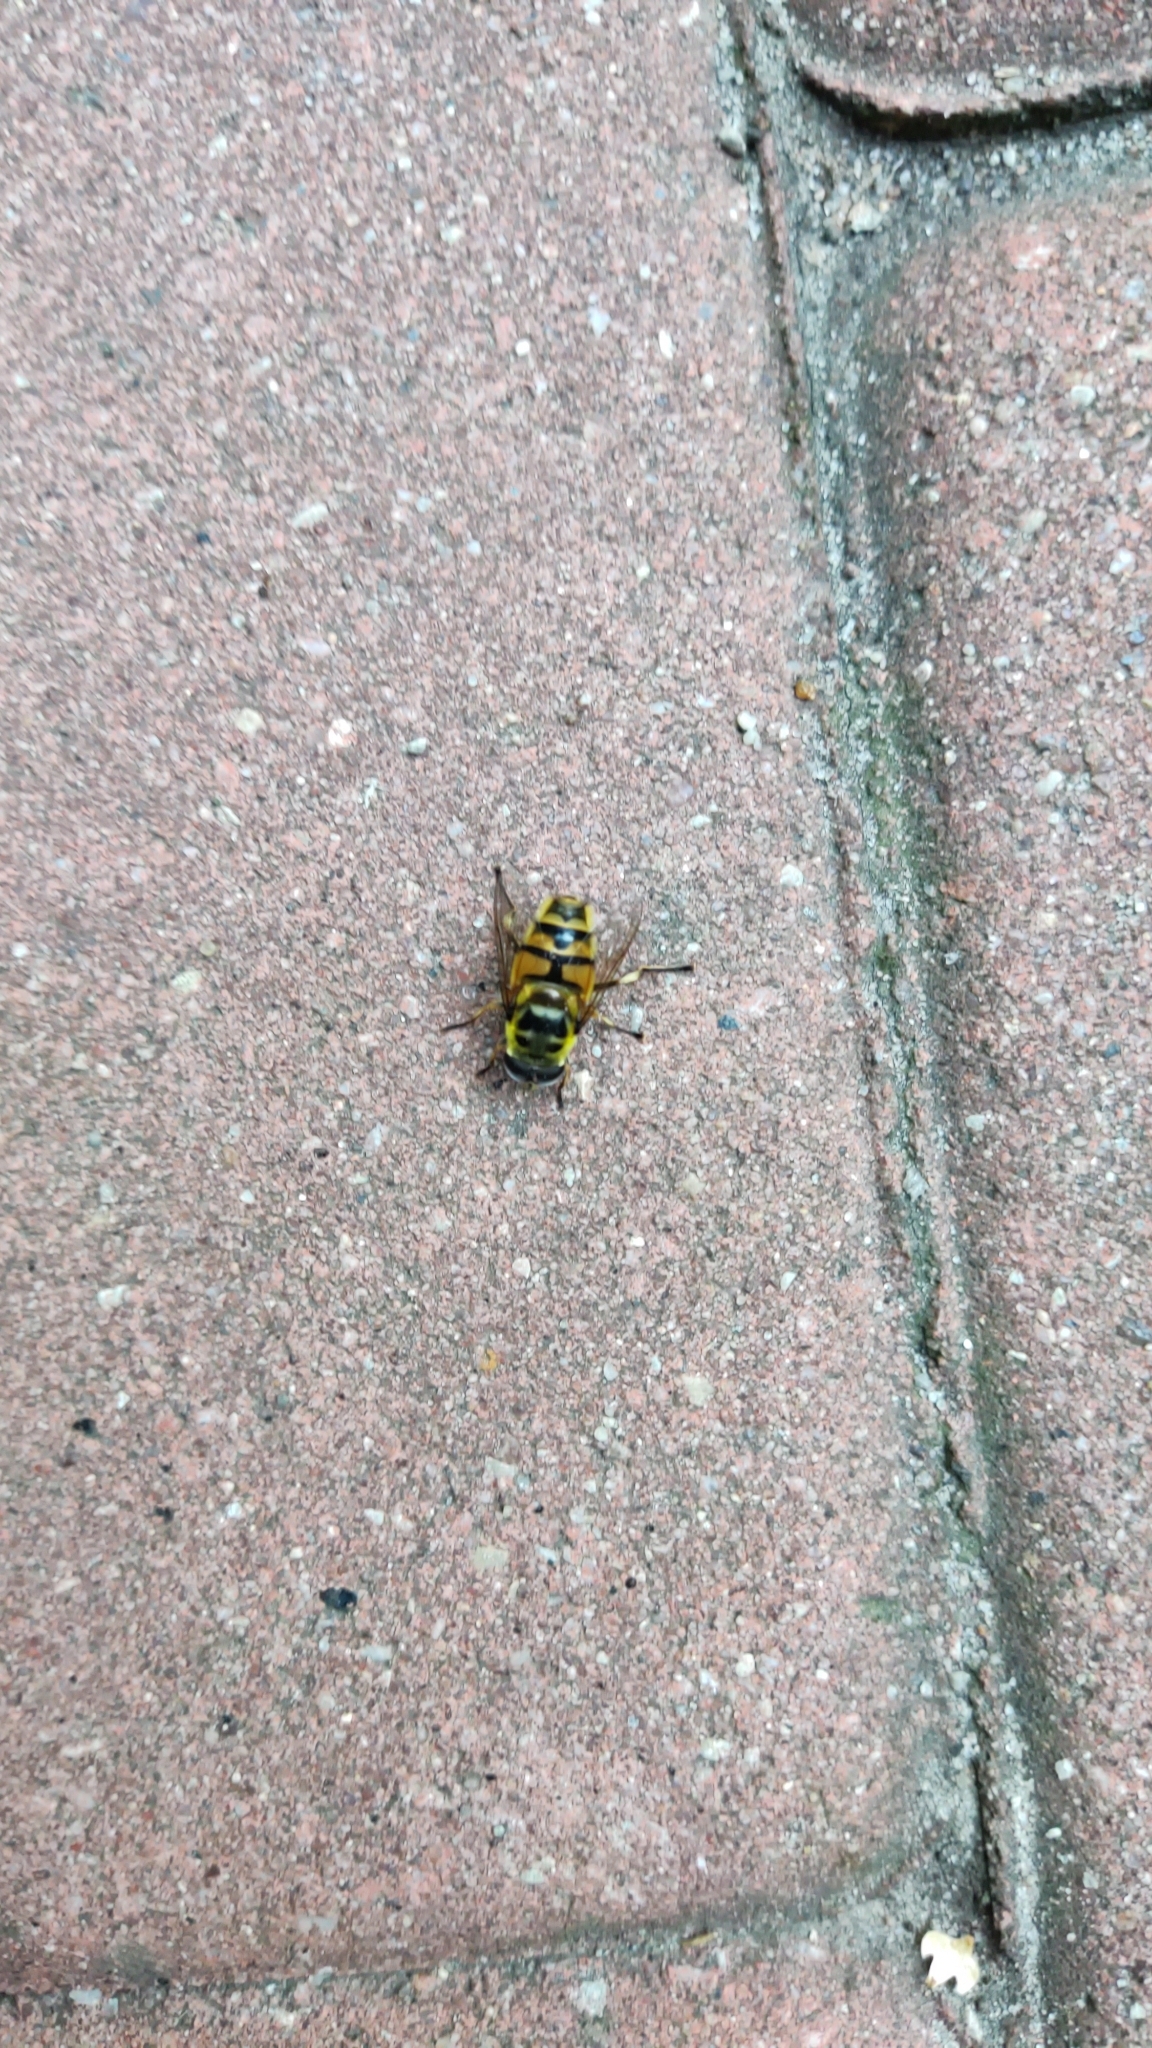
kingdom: Animalia
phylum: Arthropoda
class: Insecta
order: Diptera
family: Syrphidae
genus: Myathropa
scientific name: Myathropa florea
